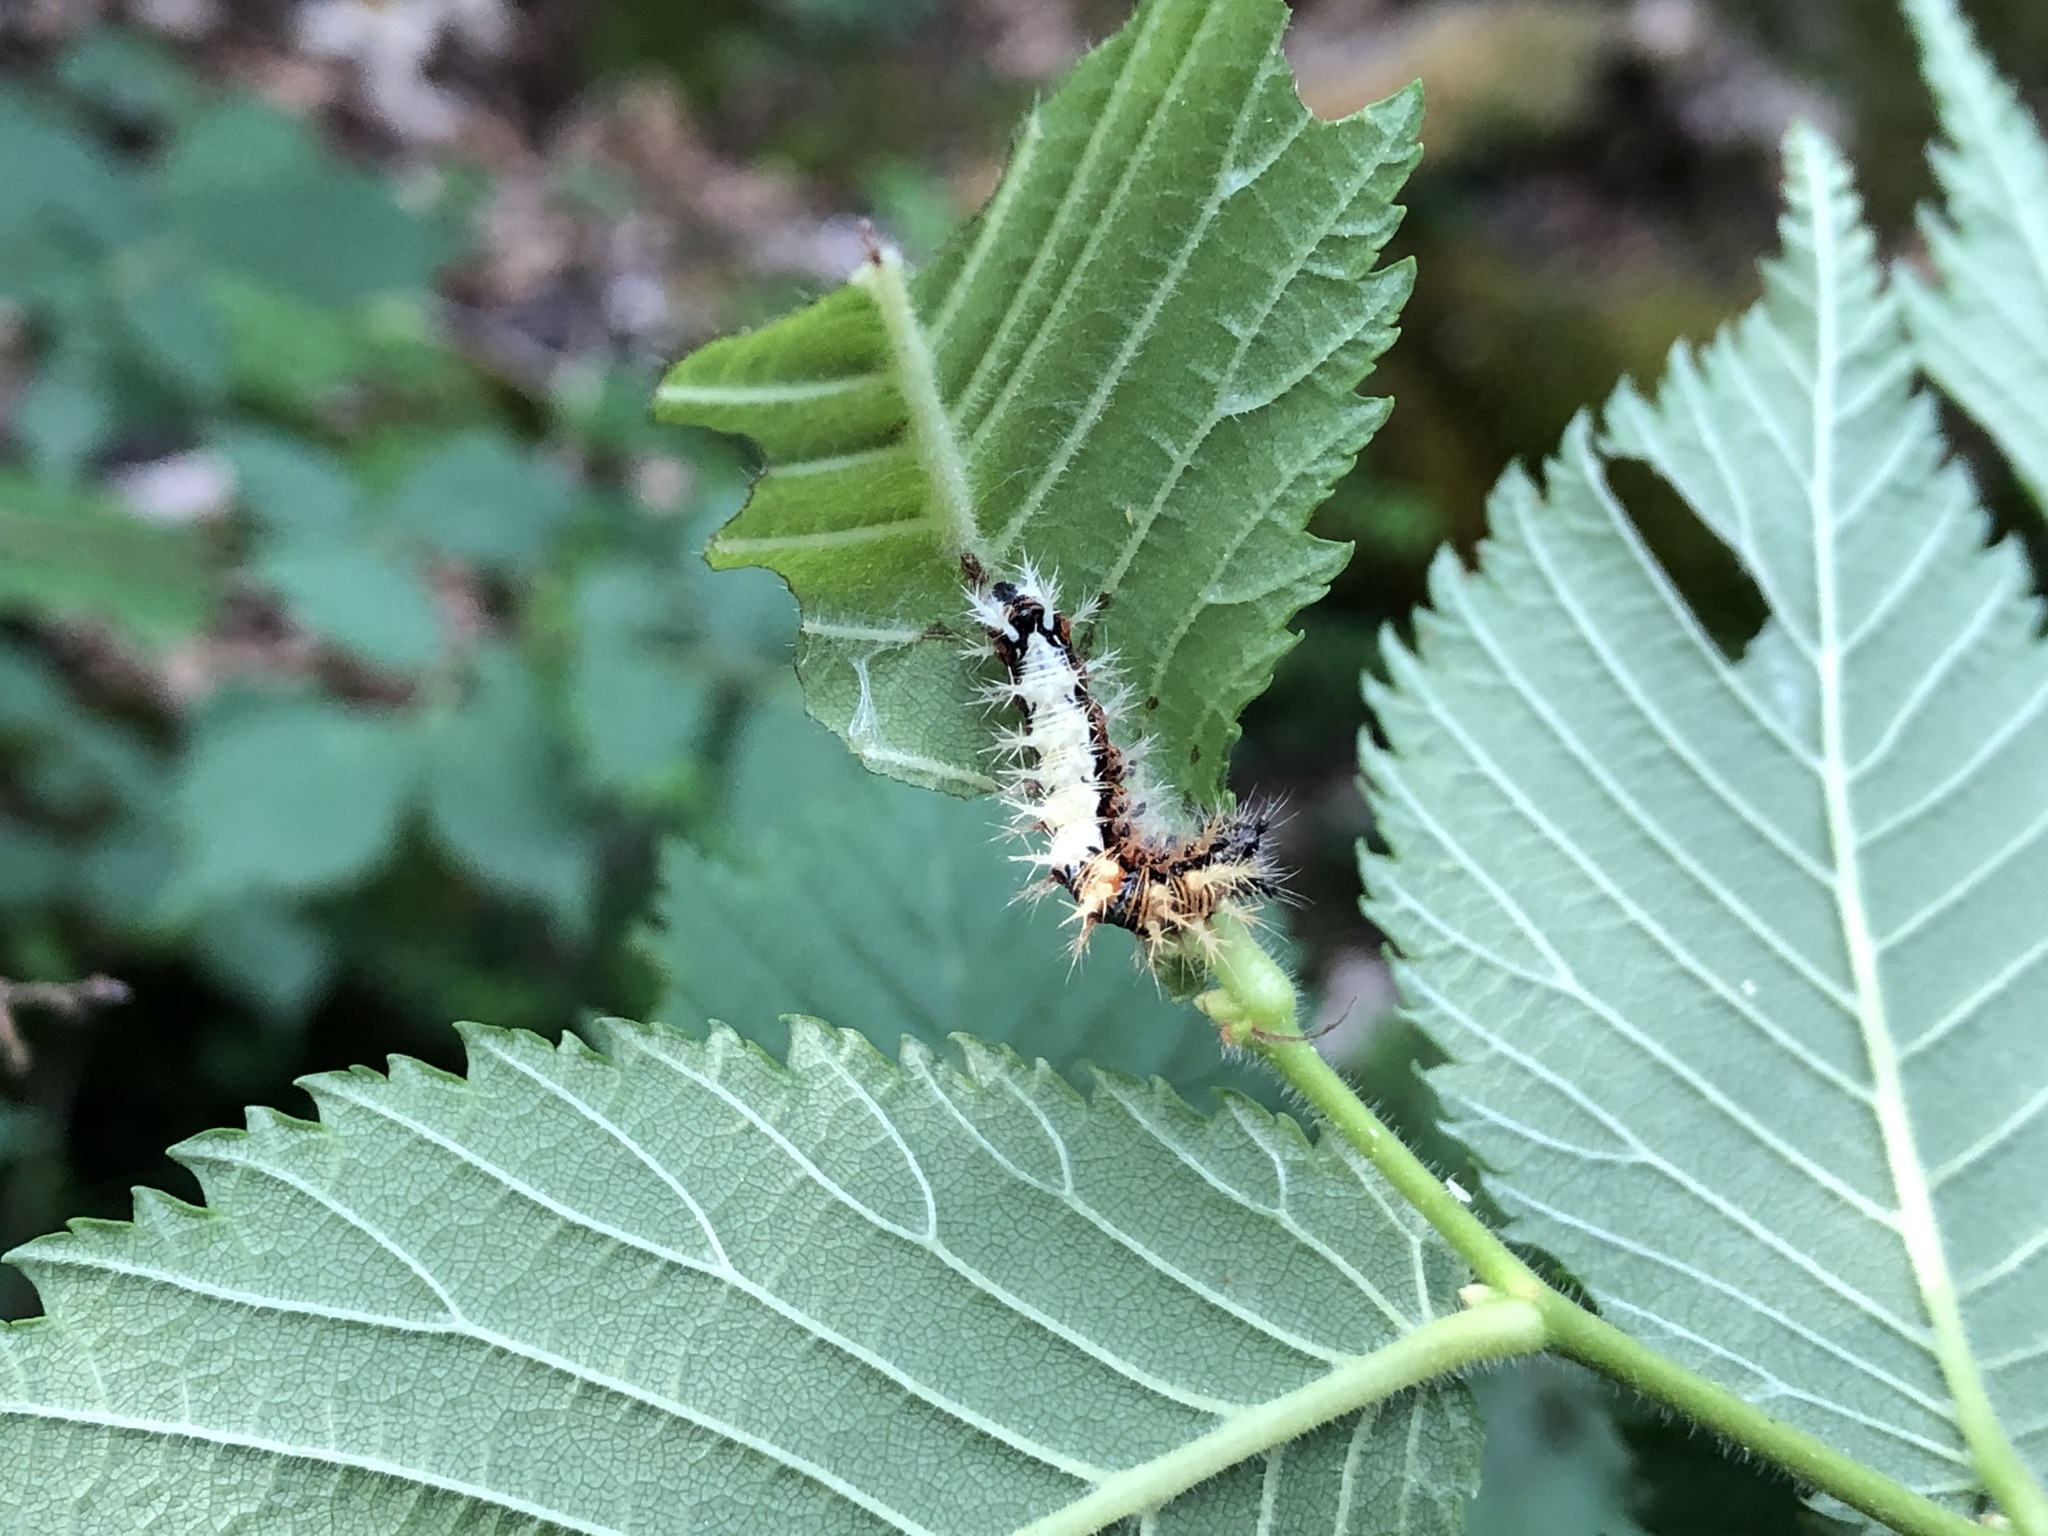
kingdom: Animalia
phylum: Arthropoda
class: Insecta
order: Lepidoptera
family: Nymphalidae
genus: Polygonia
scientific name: Polygonia c-album
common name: Comma
